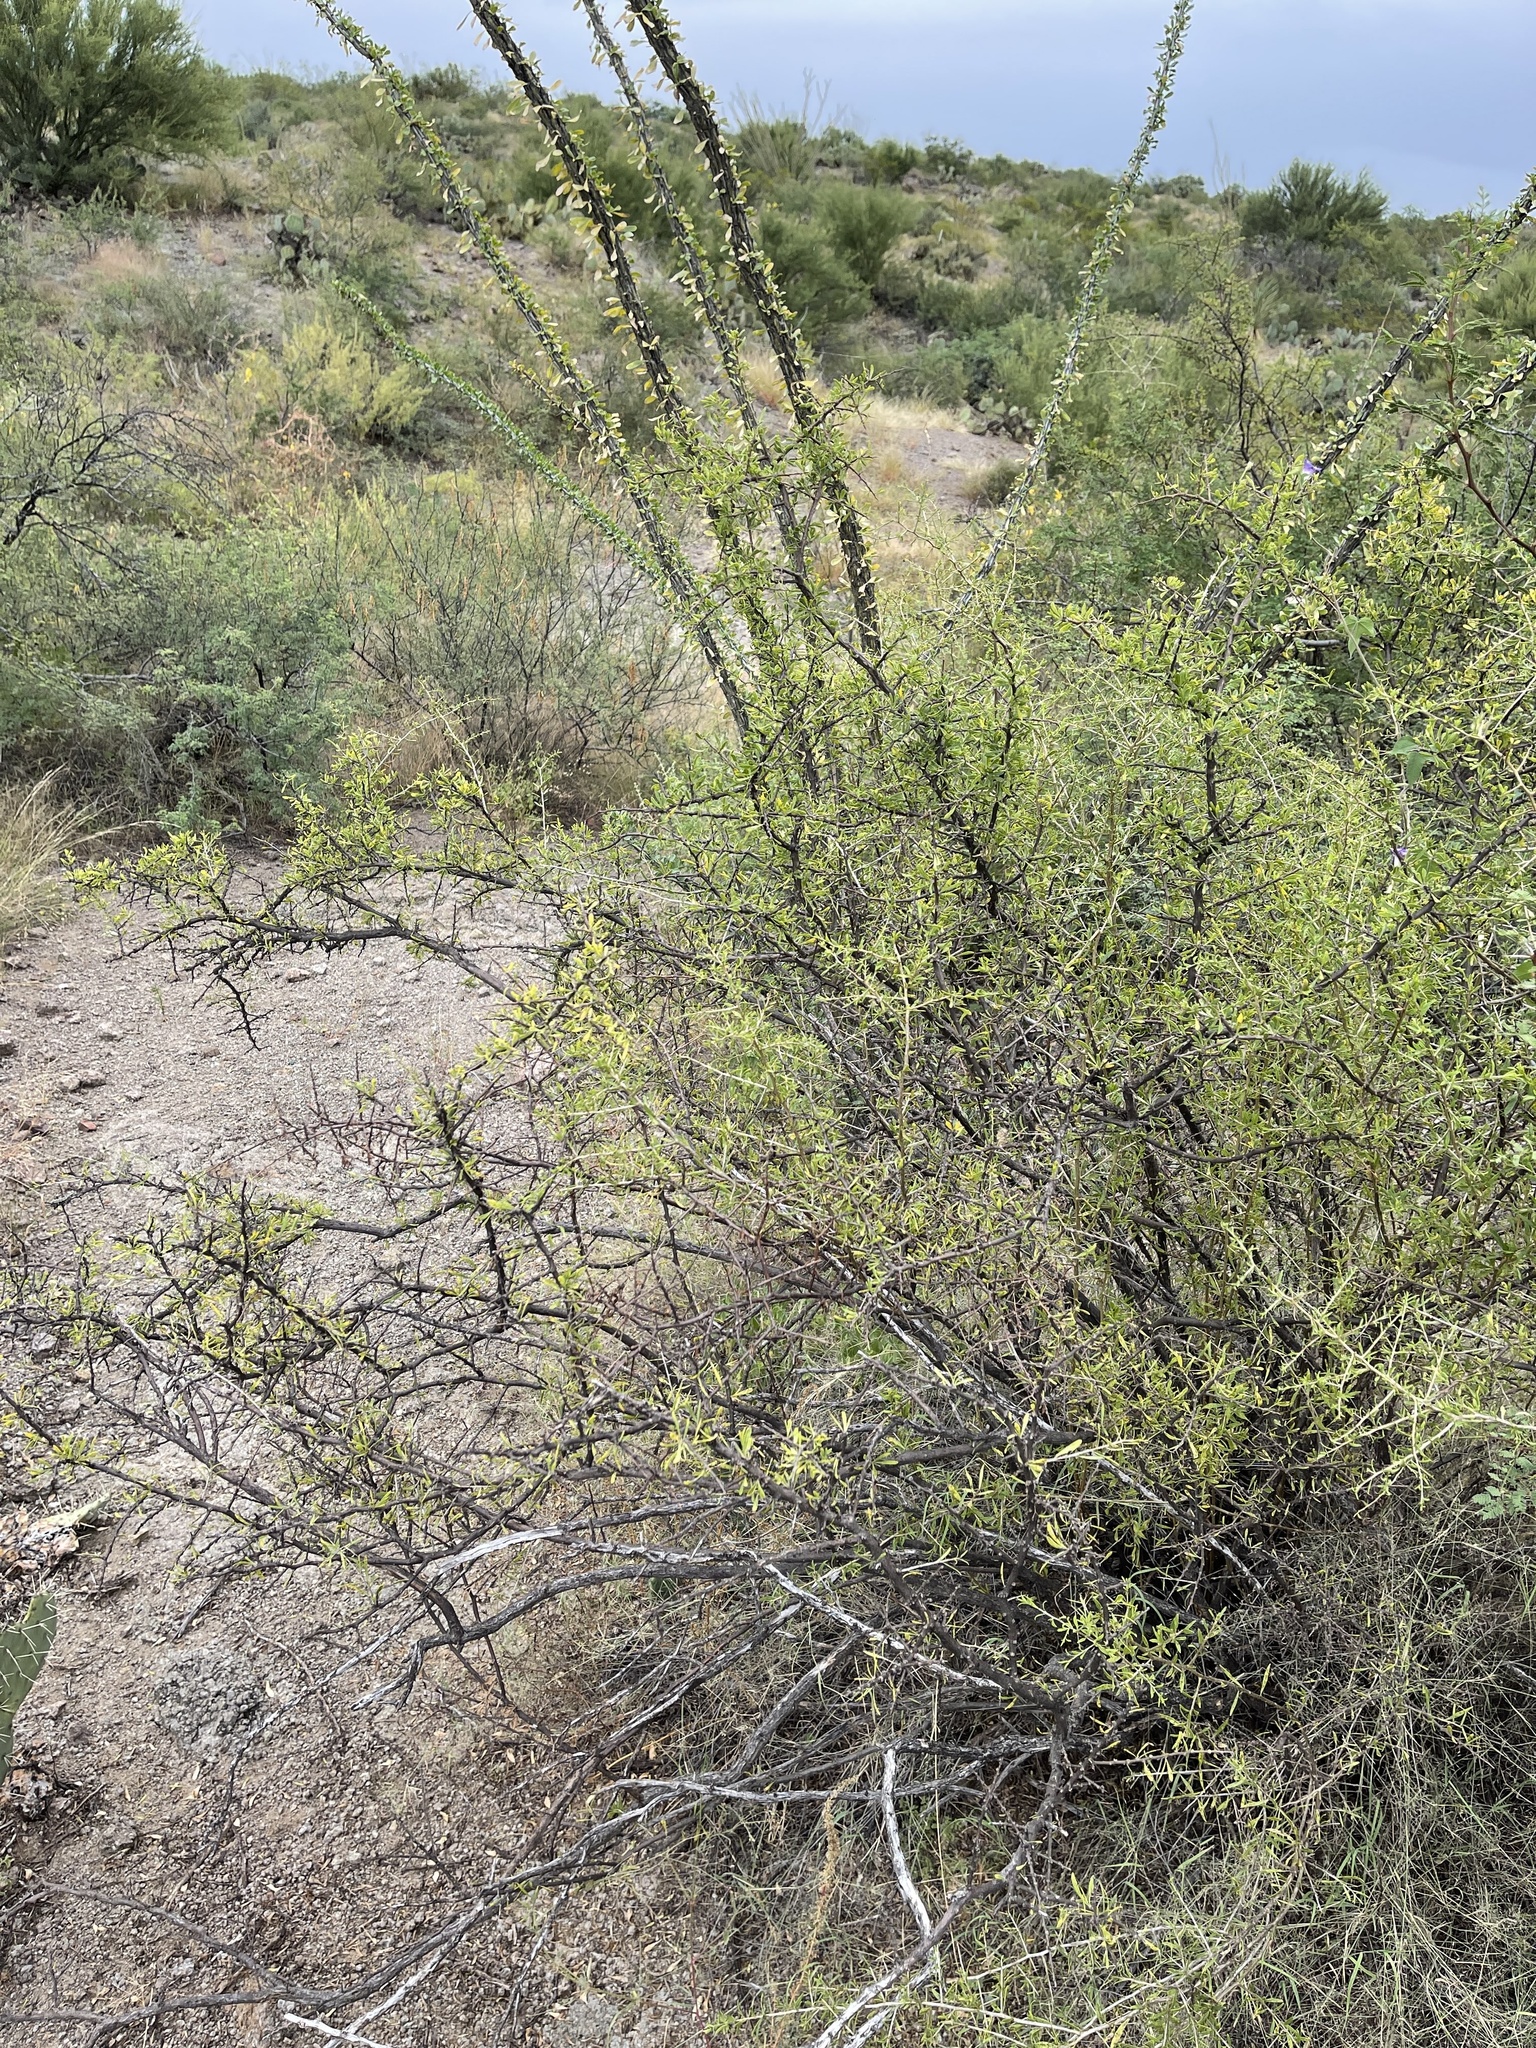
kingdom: Plantae
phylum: Tracheophyta
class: Magnoliopsida
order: Solanales
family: Solanaceae
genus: Lycium
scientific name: Lycium berlandieri
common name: Berlandier wolfberry
